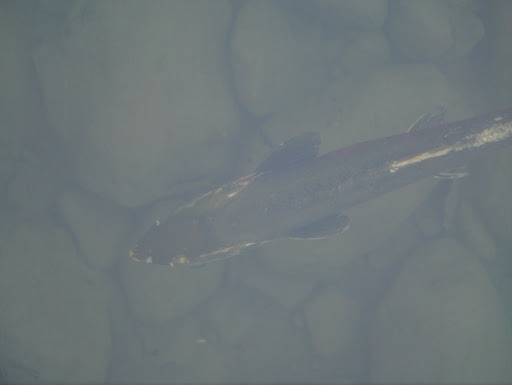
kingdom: Animalia
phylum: Chordata
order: Salmoniformes
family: Salmonidae
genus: Oncorhynchus
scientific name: Oncorhynchus kisutch
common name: Coho salmon
